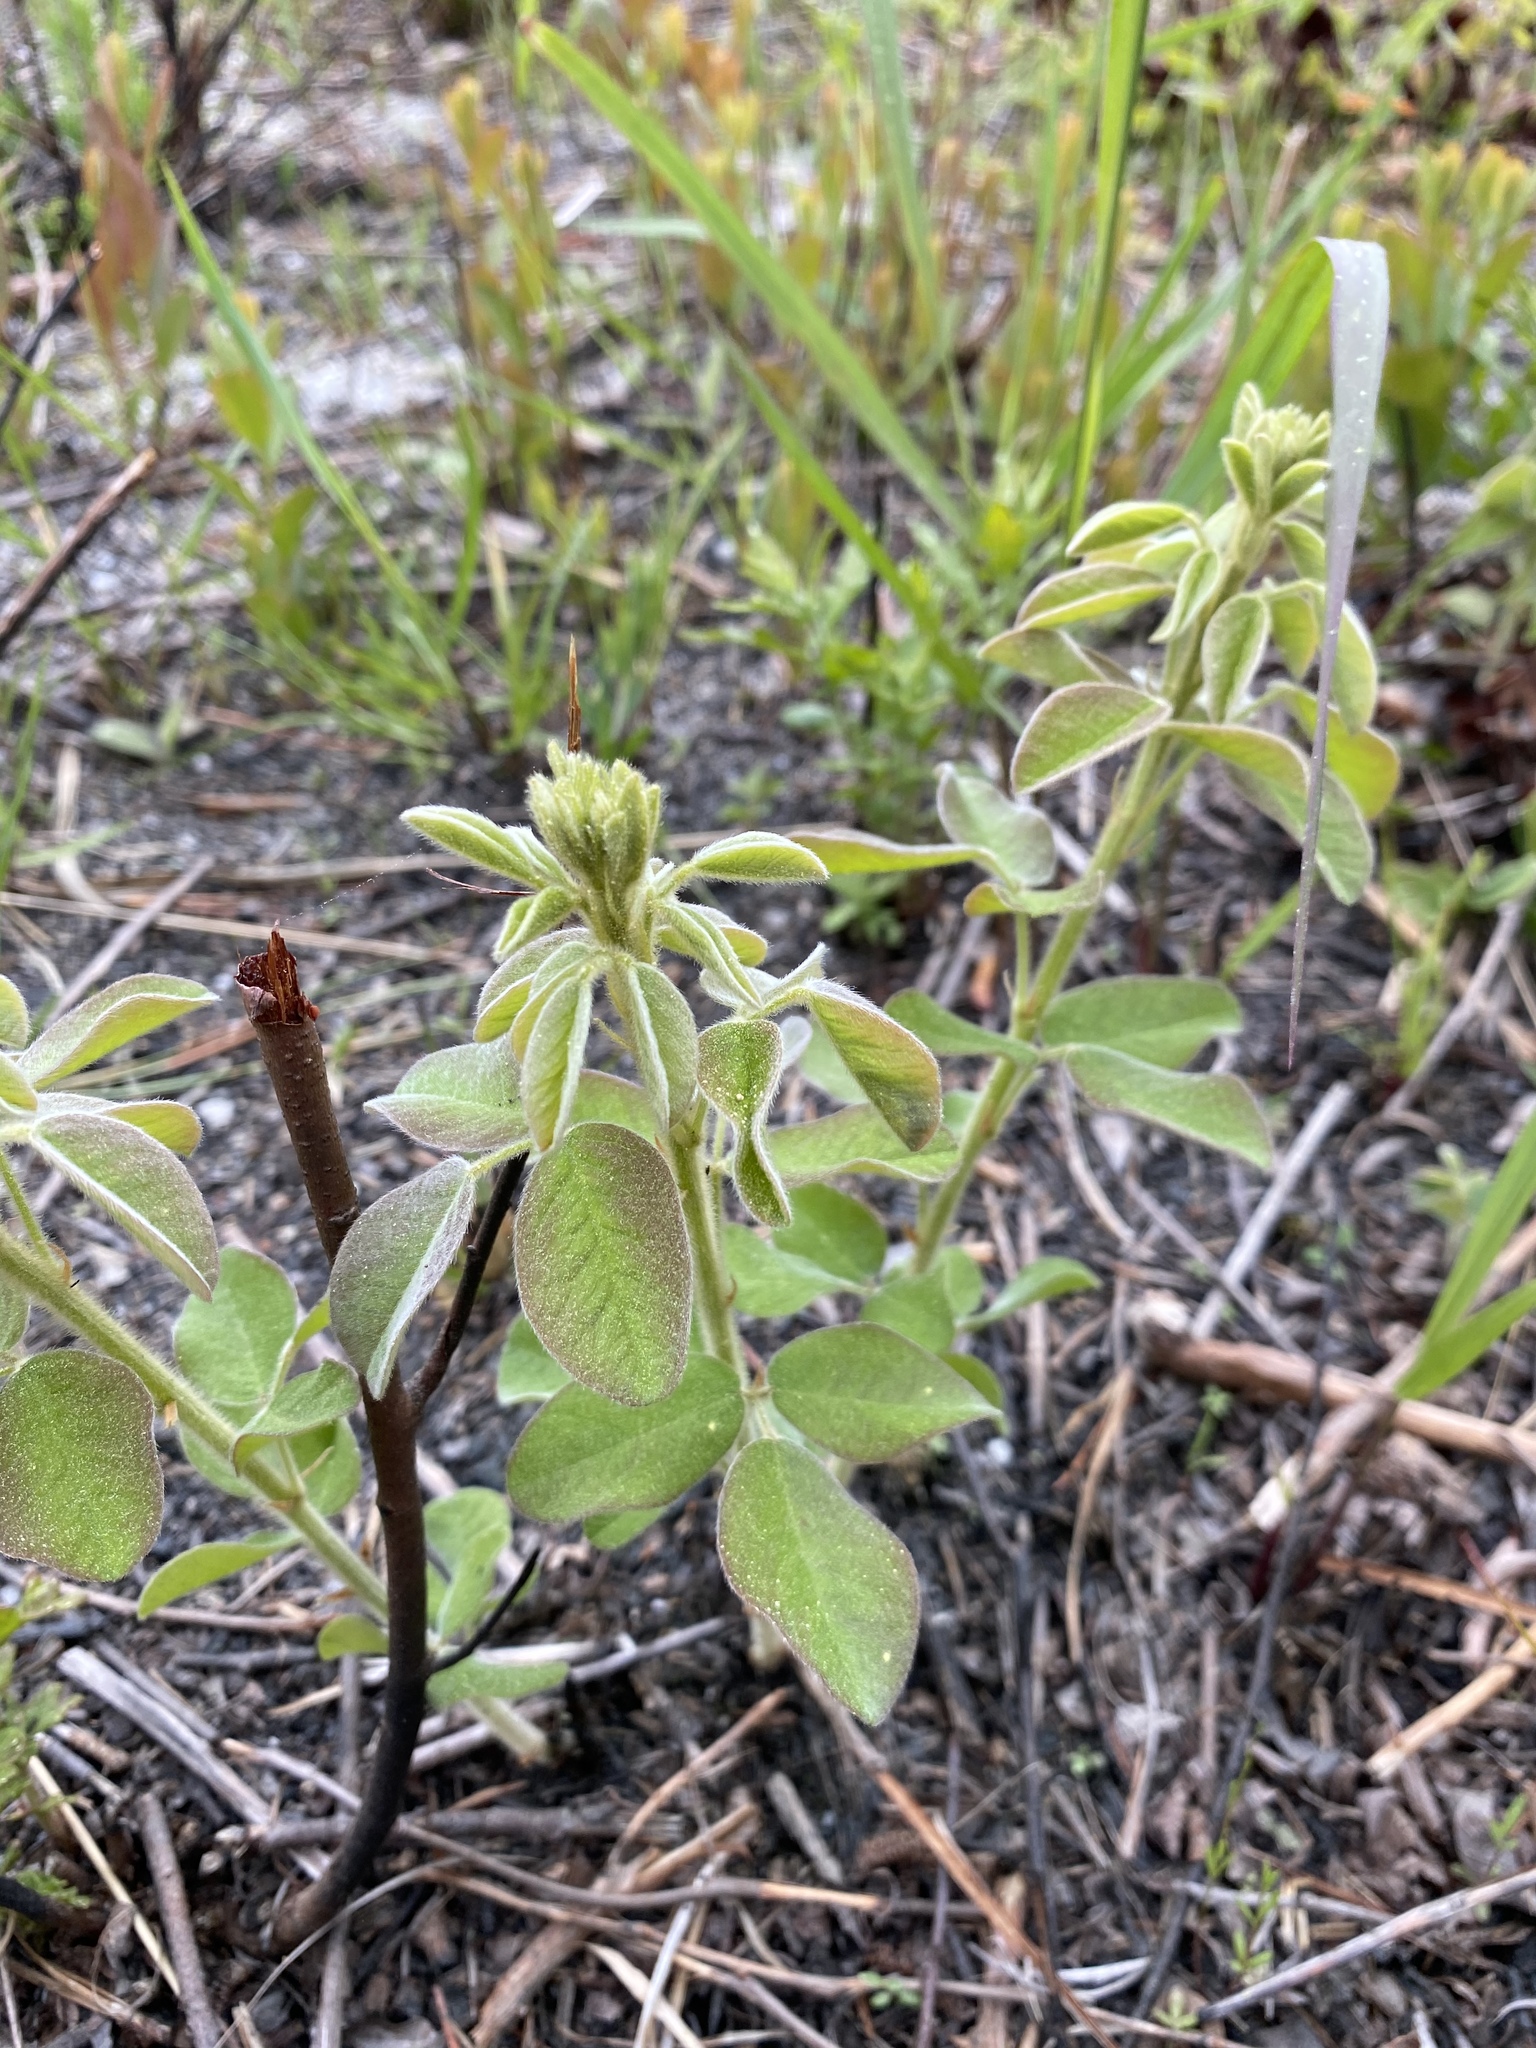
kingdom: Plantae
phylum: Tracheophyta
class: Magnoliopsida
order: Fabales
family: Fabaceae
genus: Lespedeza
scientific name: Lespedeza hirta
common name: Hairy lespedeza
